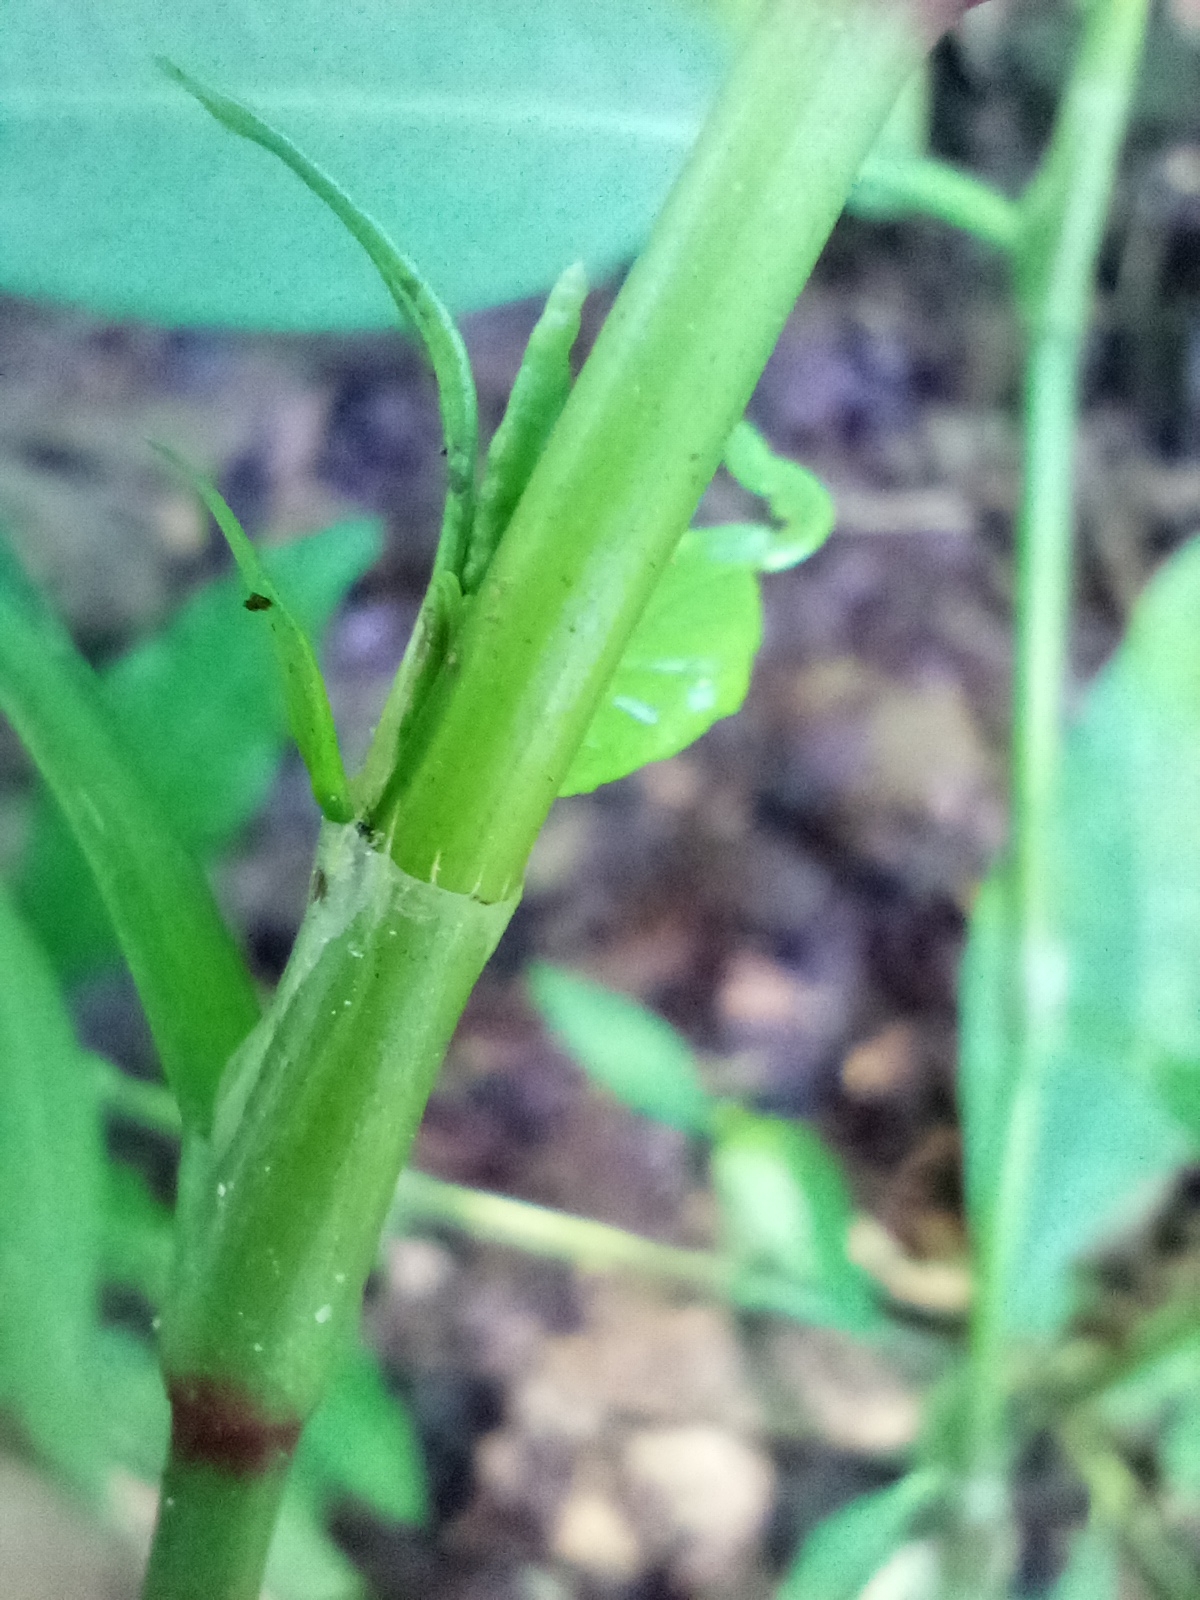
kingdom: Plantae
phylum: Tracheophyta
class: Magnoliopsida
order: Caryophyllales
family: Polygonaceae
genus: Persicaria
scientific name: Persicaria hydropiper
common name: Water-pepper
